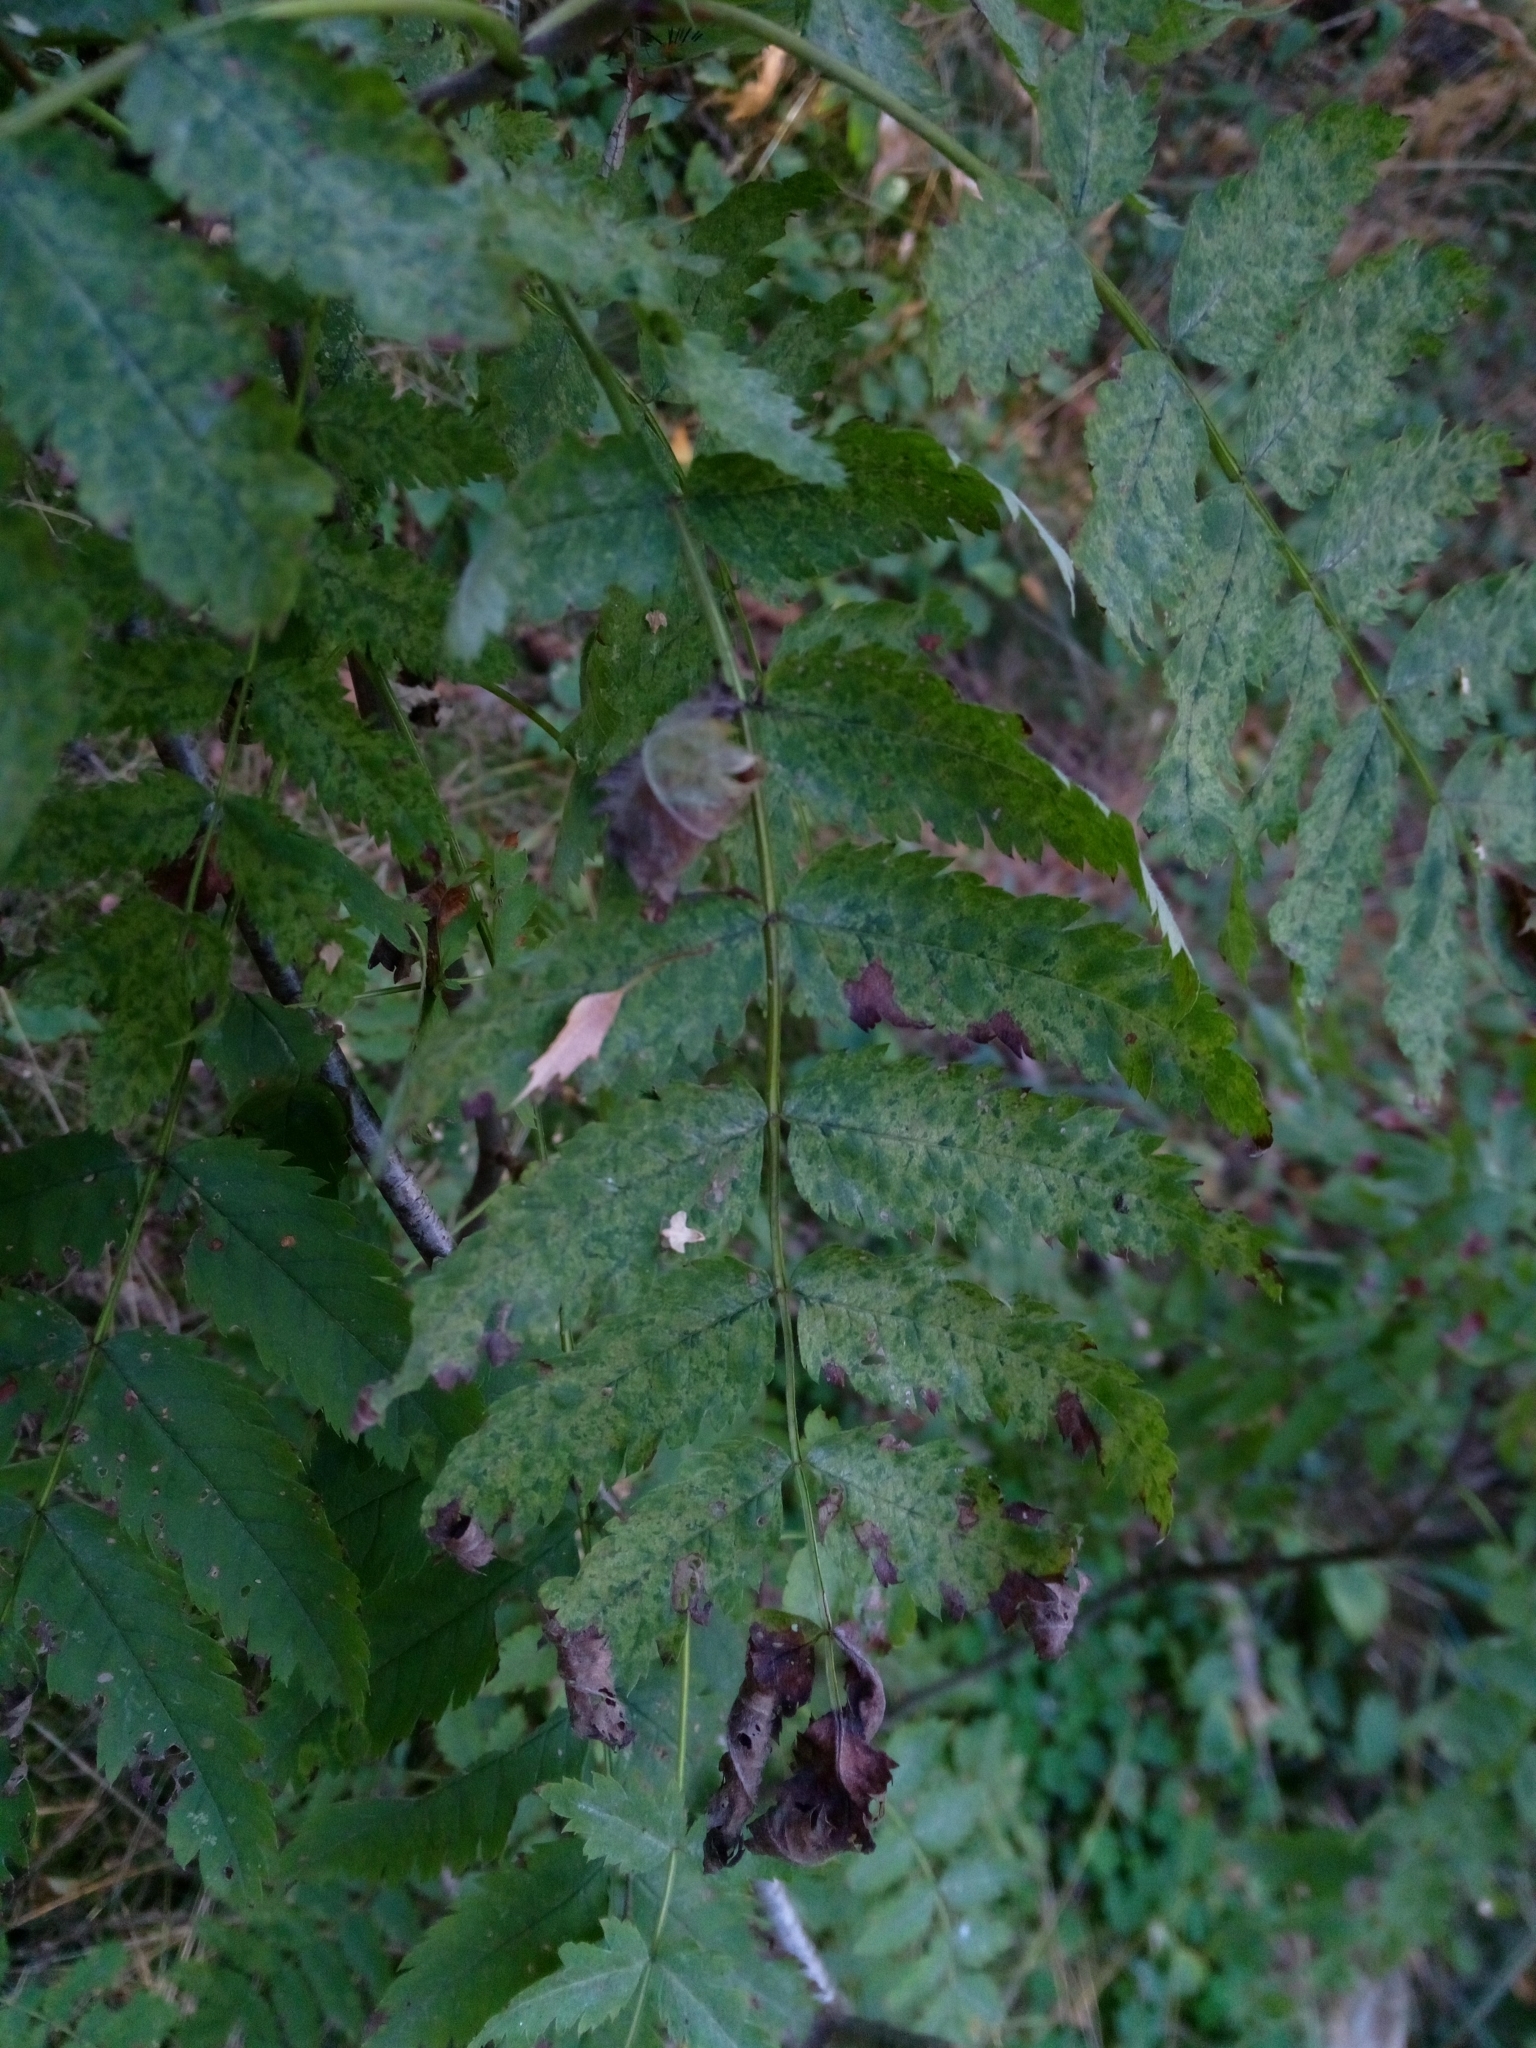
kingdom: Viruses
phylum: Negarnaviricota
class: Ellioviricetes
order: Bunyavirales
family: Fimoviridae
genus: Emaravirus
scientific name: Emaravirus sorbi
